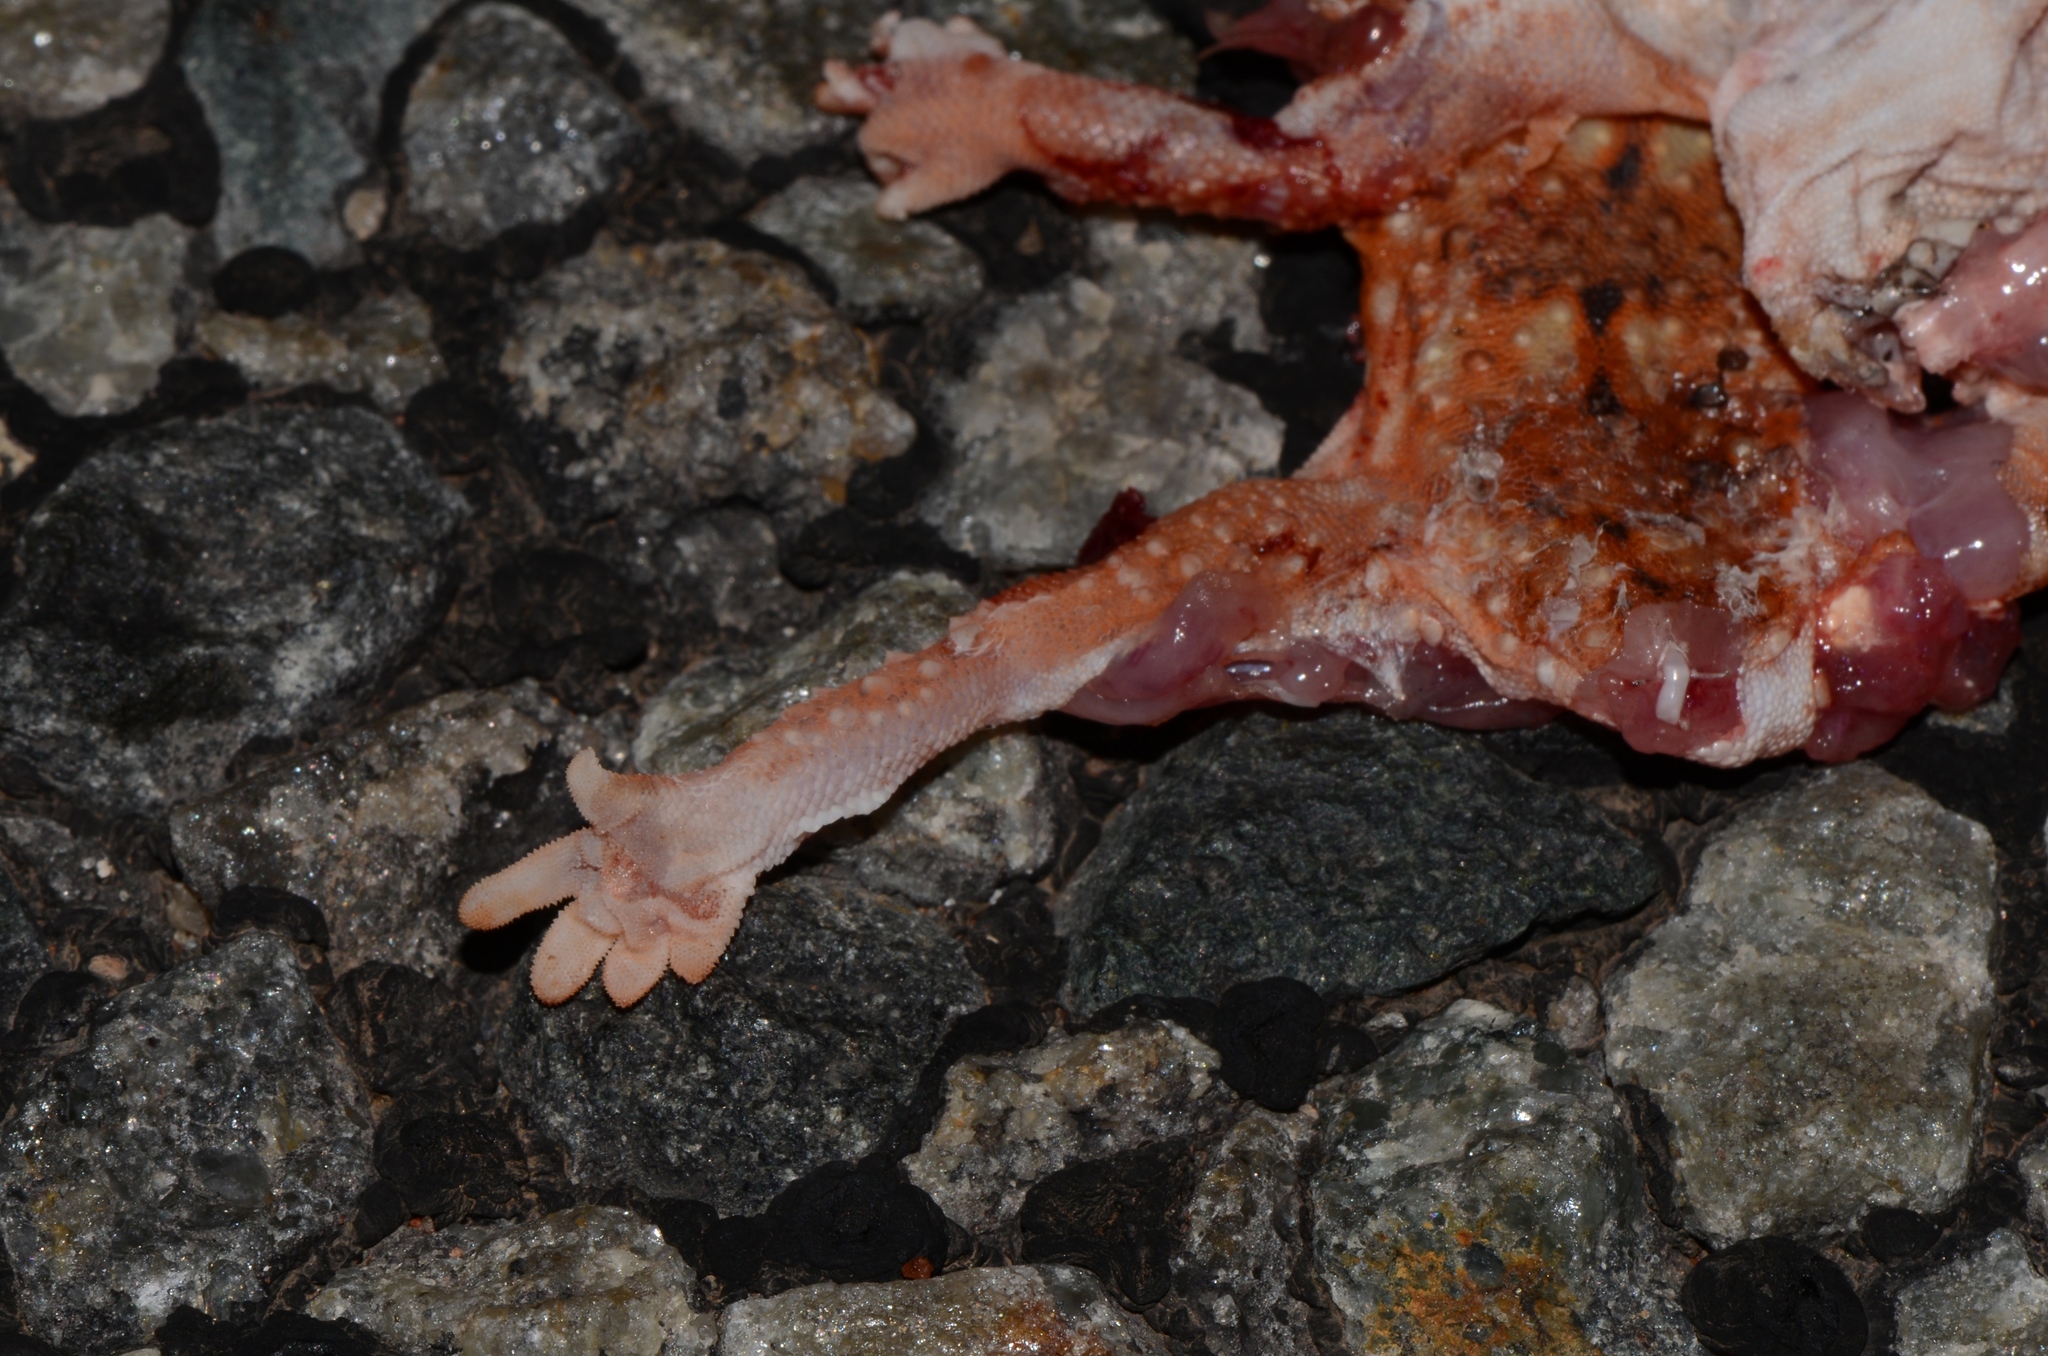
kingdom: Animalia
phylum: Chordata
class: Squamata
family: Gekkonidae
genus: Chondrodactylus
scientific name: Chondrodactylus angulifer
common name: Common giant ground gecko
